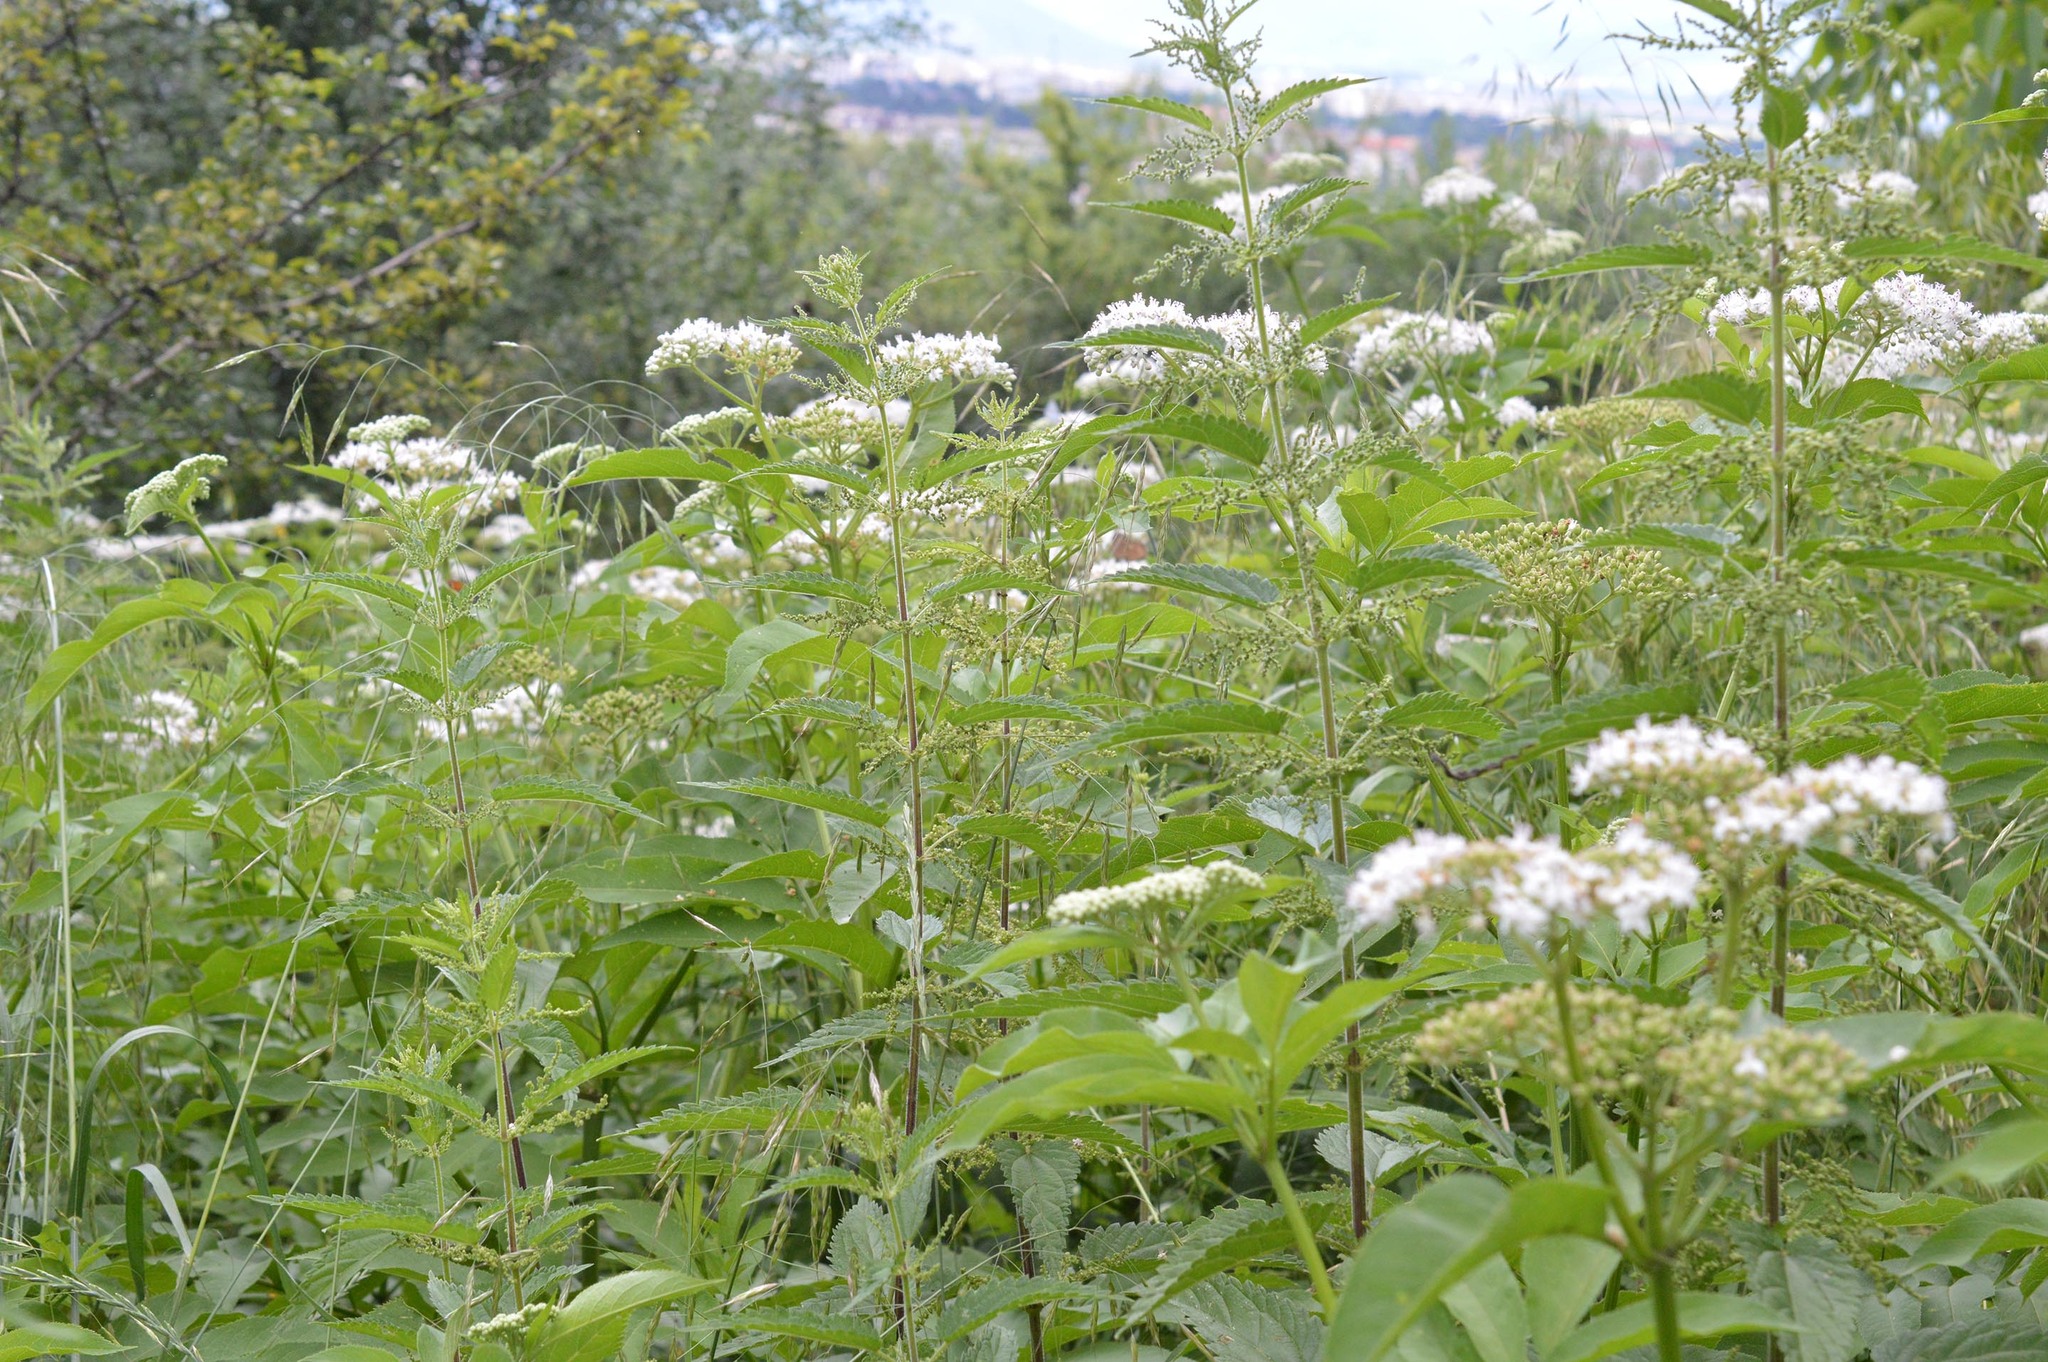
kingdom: Plantae
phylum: Tracheophyta
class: Magnoliopsida
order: Dipsacales
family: Viburnaceae
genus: Sambucus
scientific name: Sambucus ebulus
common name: Dwarf elder
